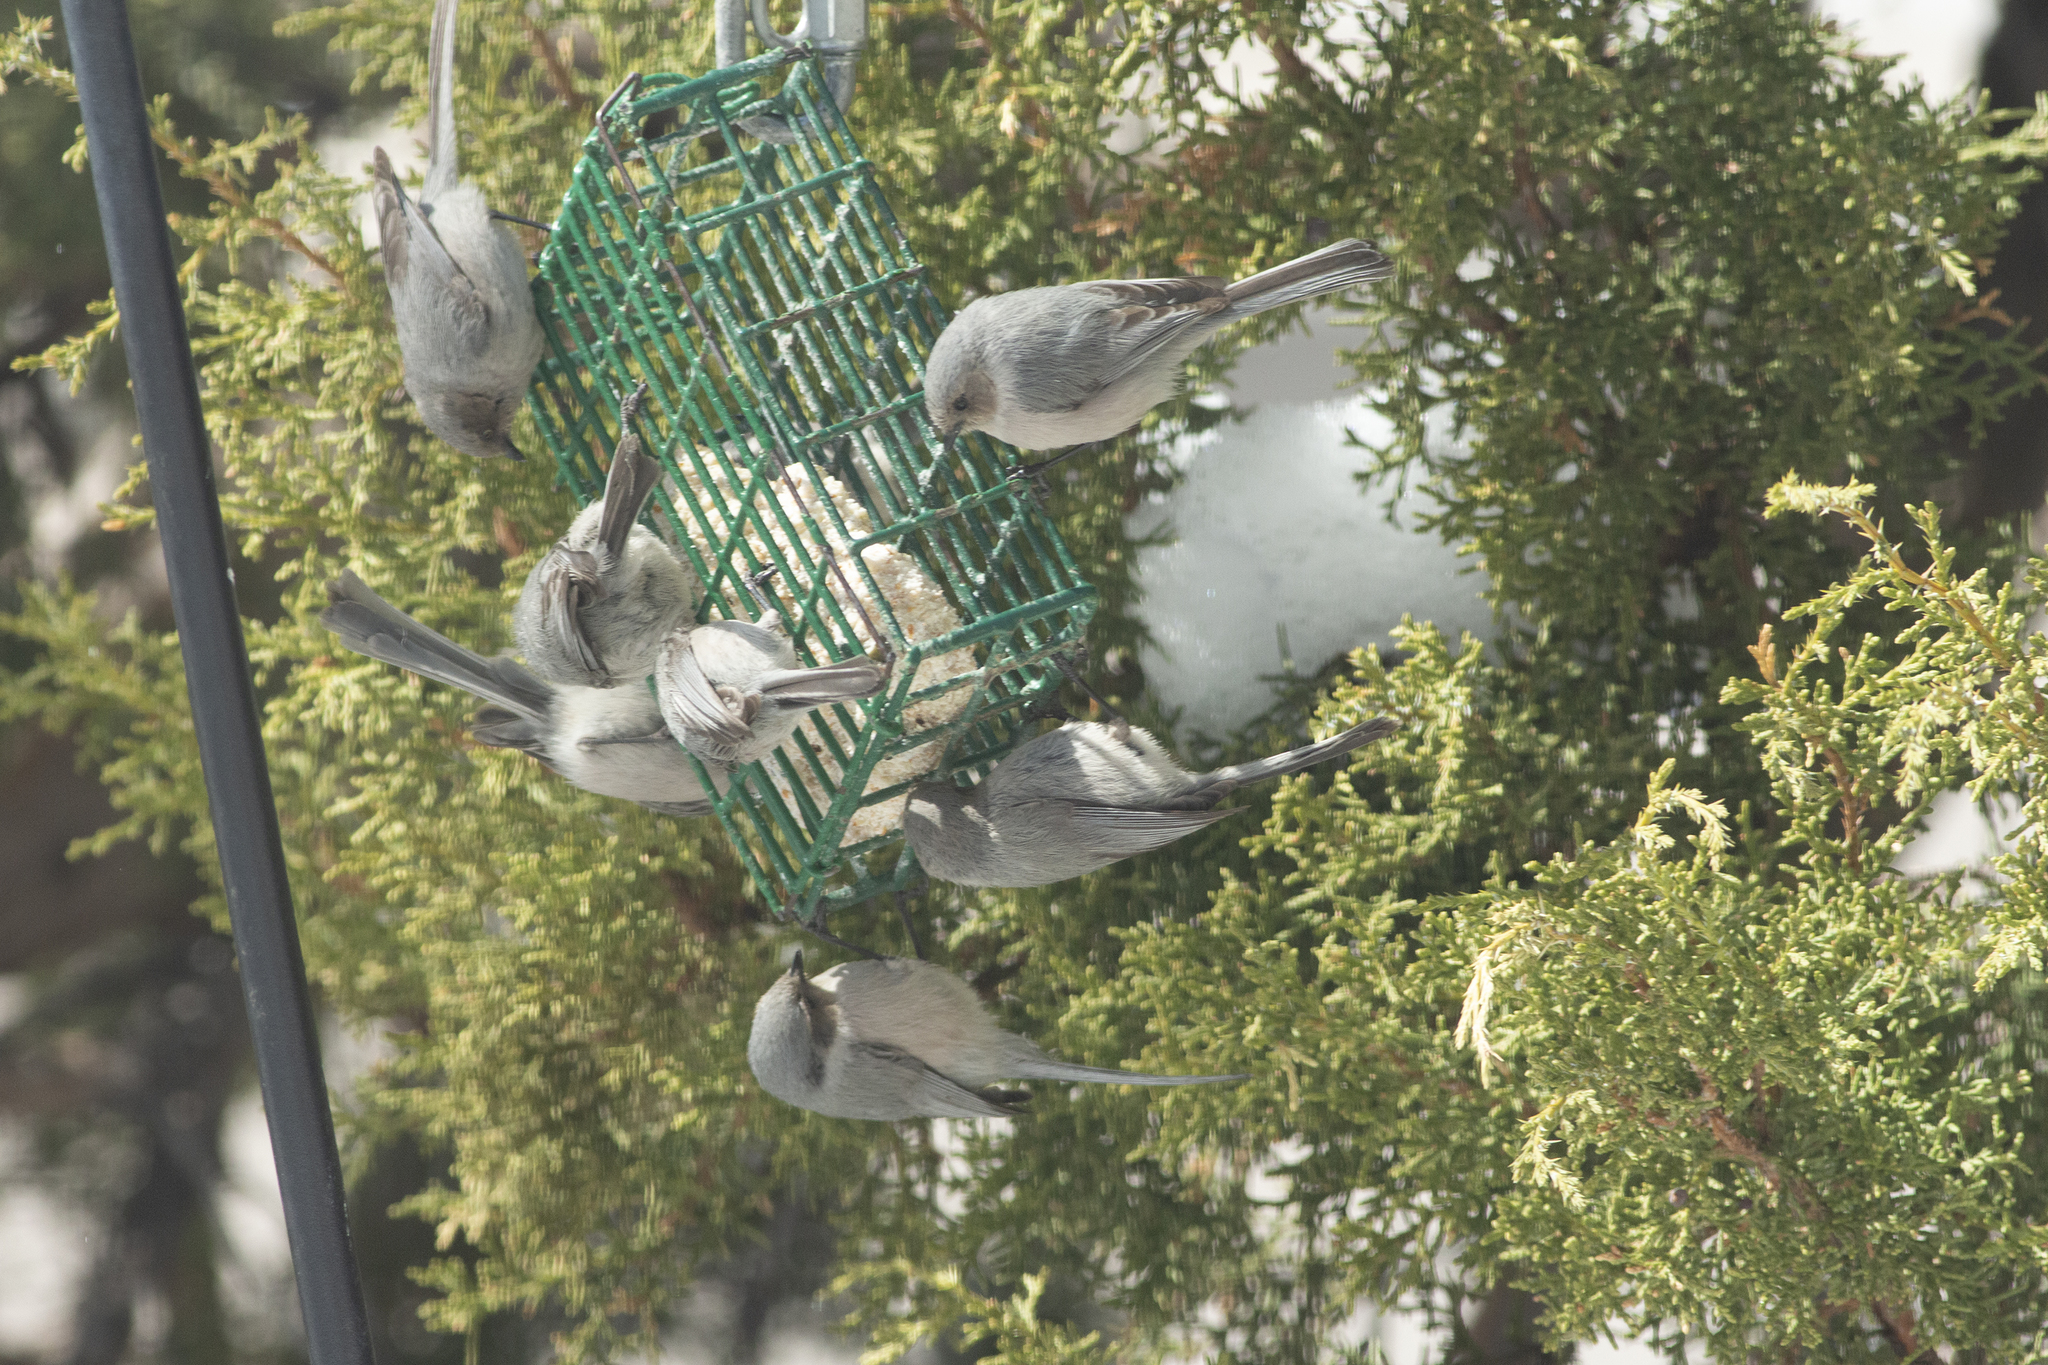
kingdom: Animalia
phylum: Chordata
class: Aves
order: Passeriformes
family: Aegithalidae
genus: Psaltriparus
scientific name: Psaltriparus minimus
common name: American bushtit
